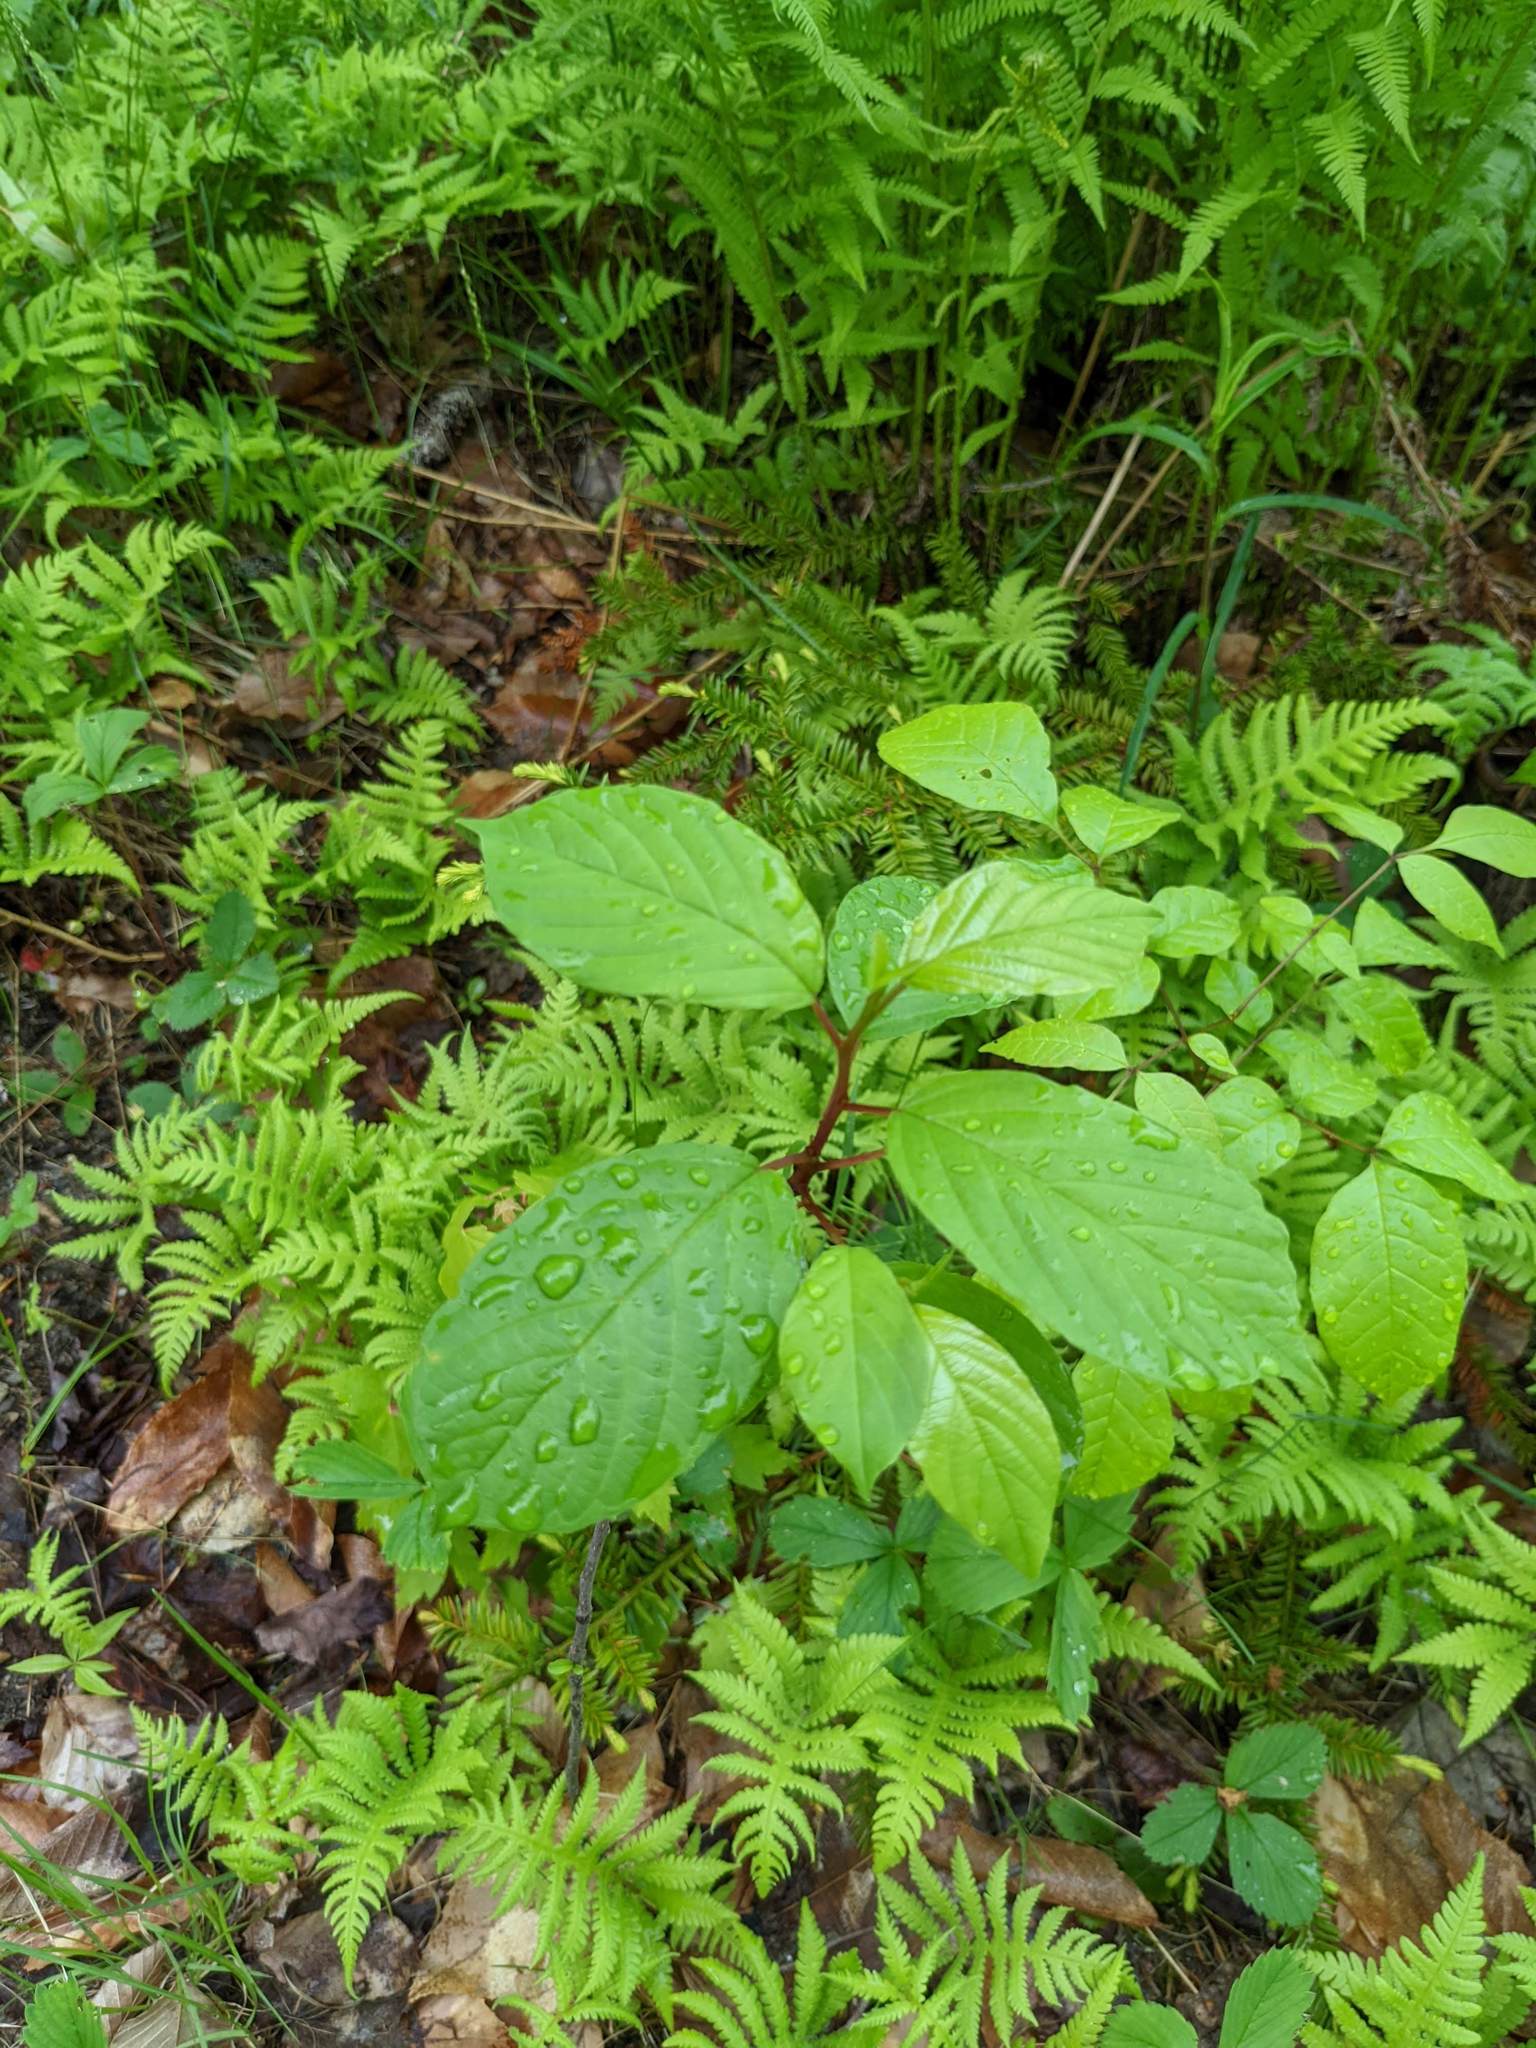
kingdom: Plantae
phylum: Tracheophyta
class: Magnoliopsida
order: Rosales
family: Rhamnaceae
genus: Frangula
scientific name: Frangula alnus
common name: Alder buckthorn
